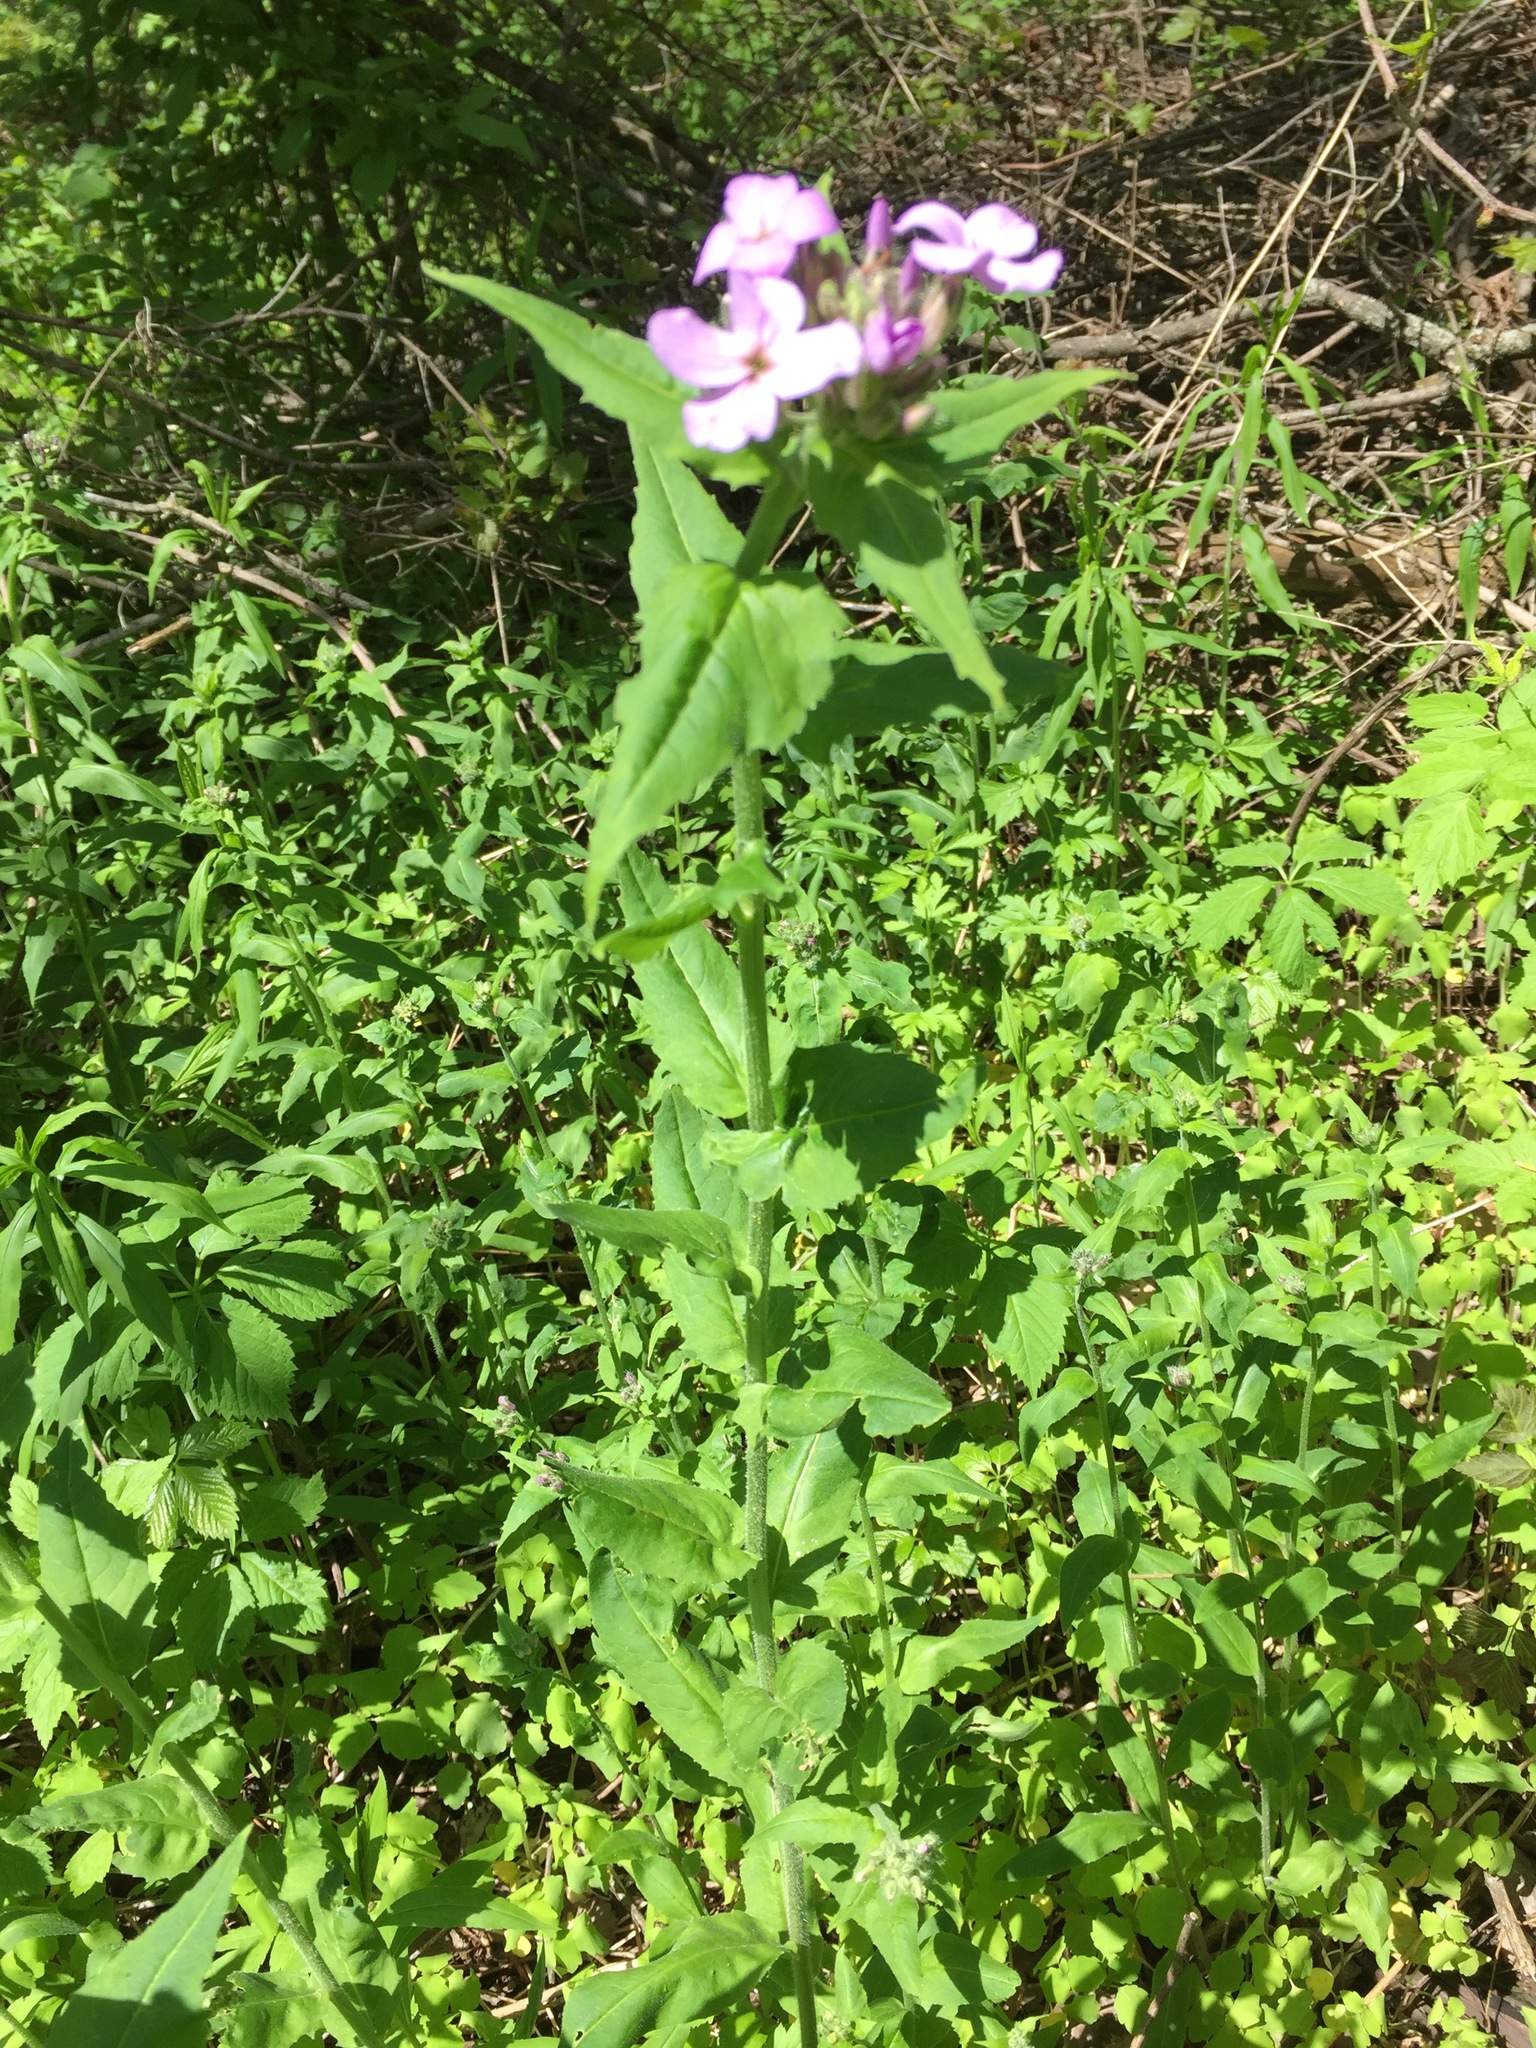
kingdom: Plantae
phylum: Tracheophyta
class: Magnoliopsida
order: Brassicales
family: Brassicaceae
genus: Hesperis
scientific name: Hesperis matronalis
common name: Dame's-violet
